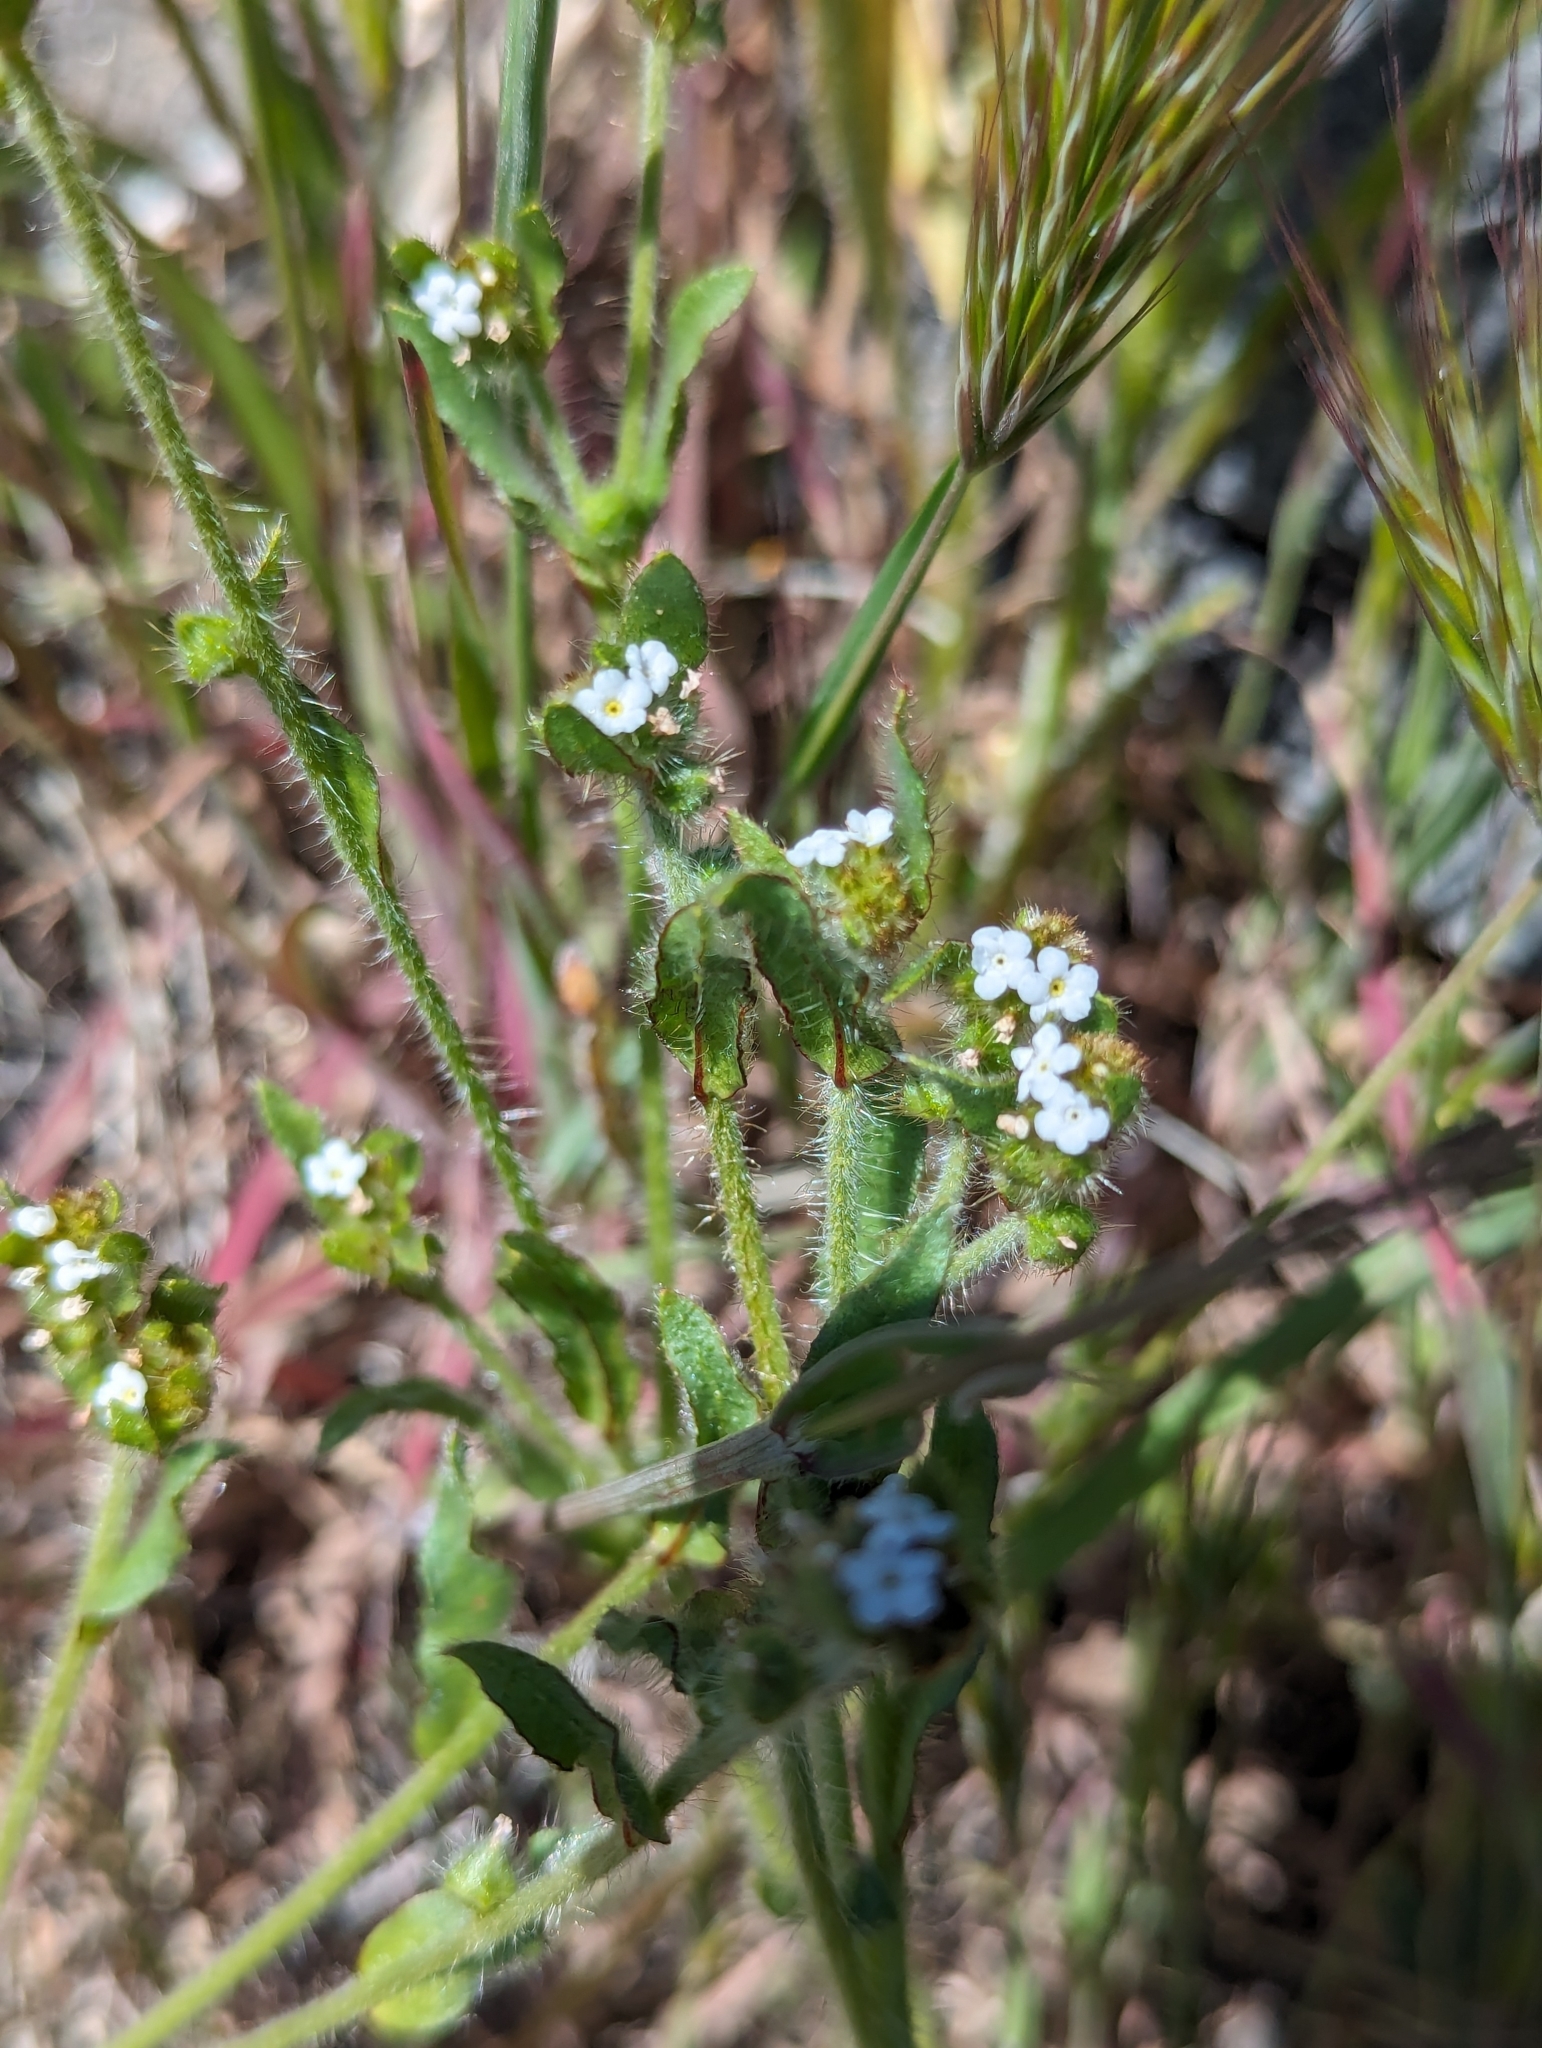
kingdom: Plantae
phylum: Tracheophyta
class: Magnoliopsida
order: Boraginales
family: Boraginaceae
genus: Plagiobothrys
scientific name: Plagiobothrys arizonicus
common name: Arizona popcorn-flower
